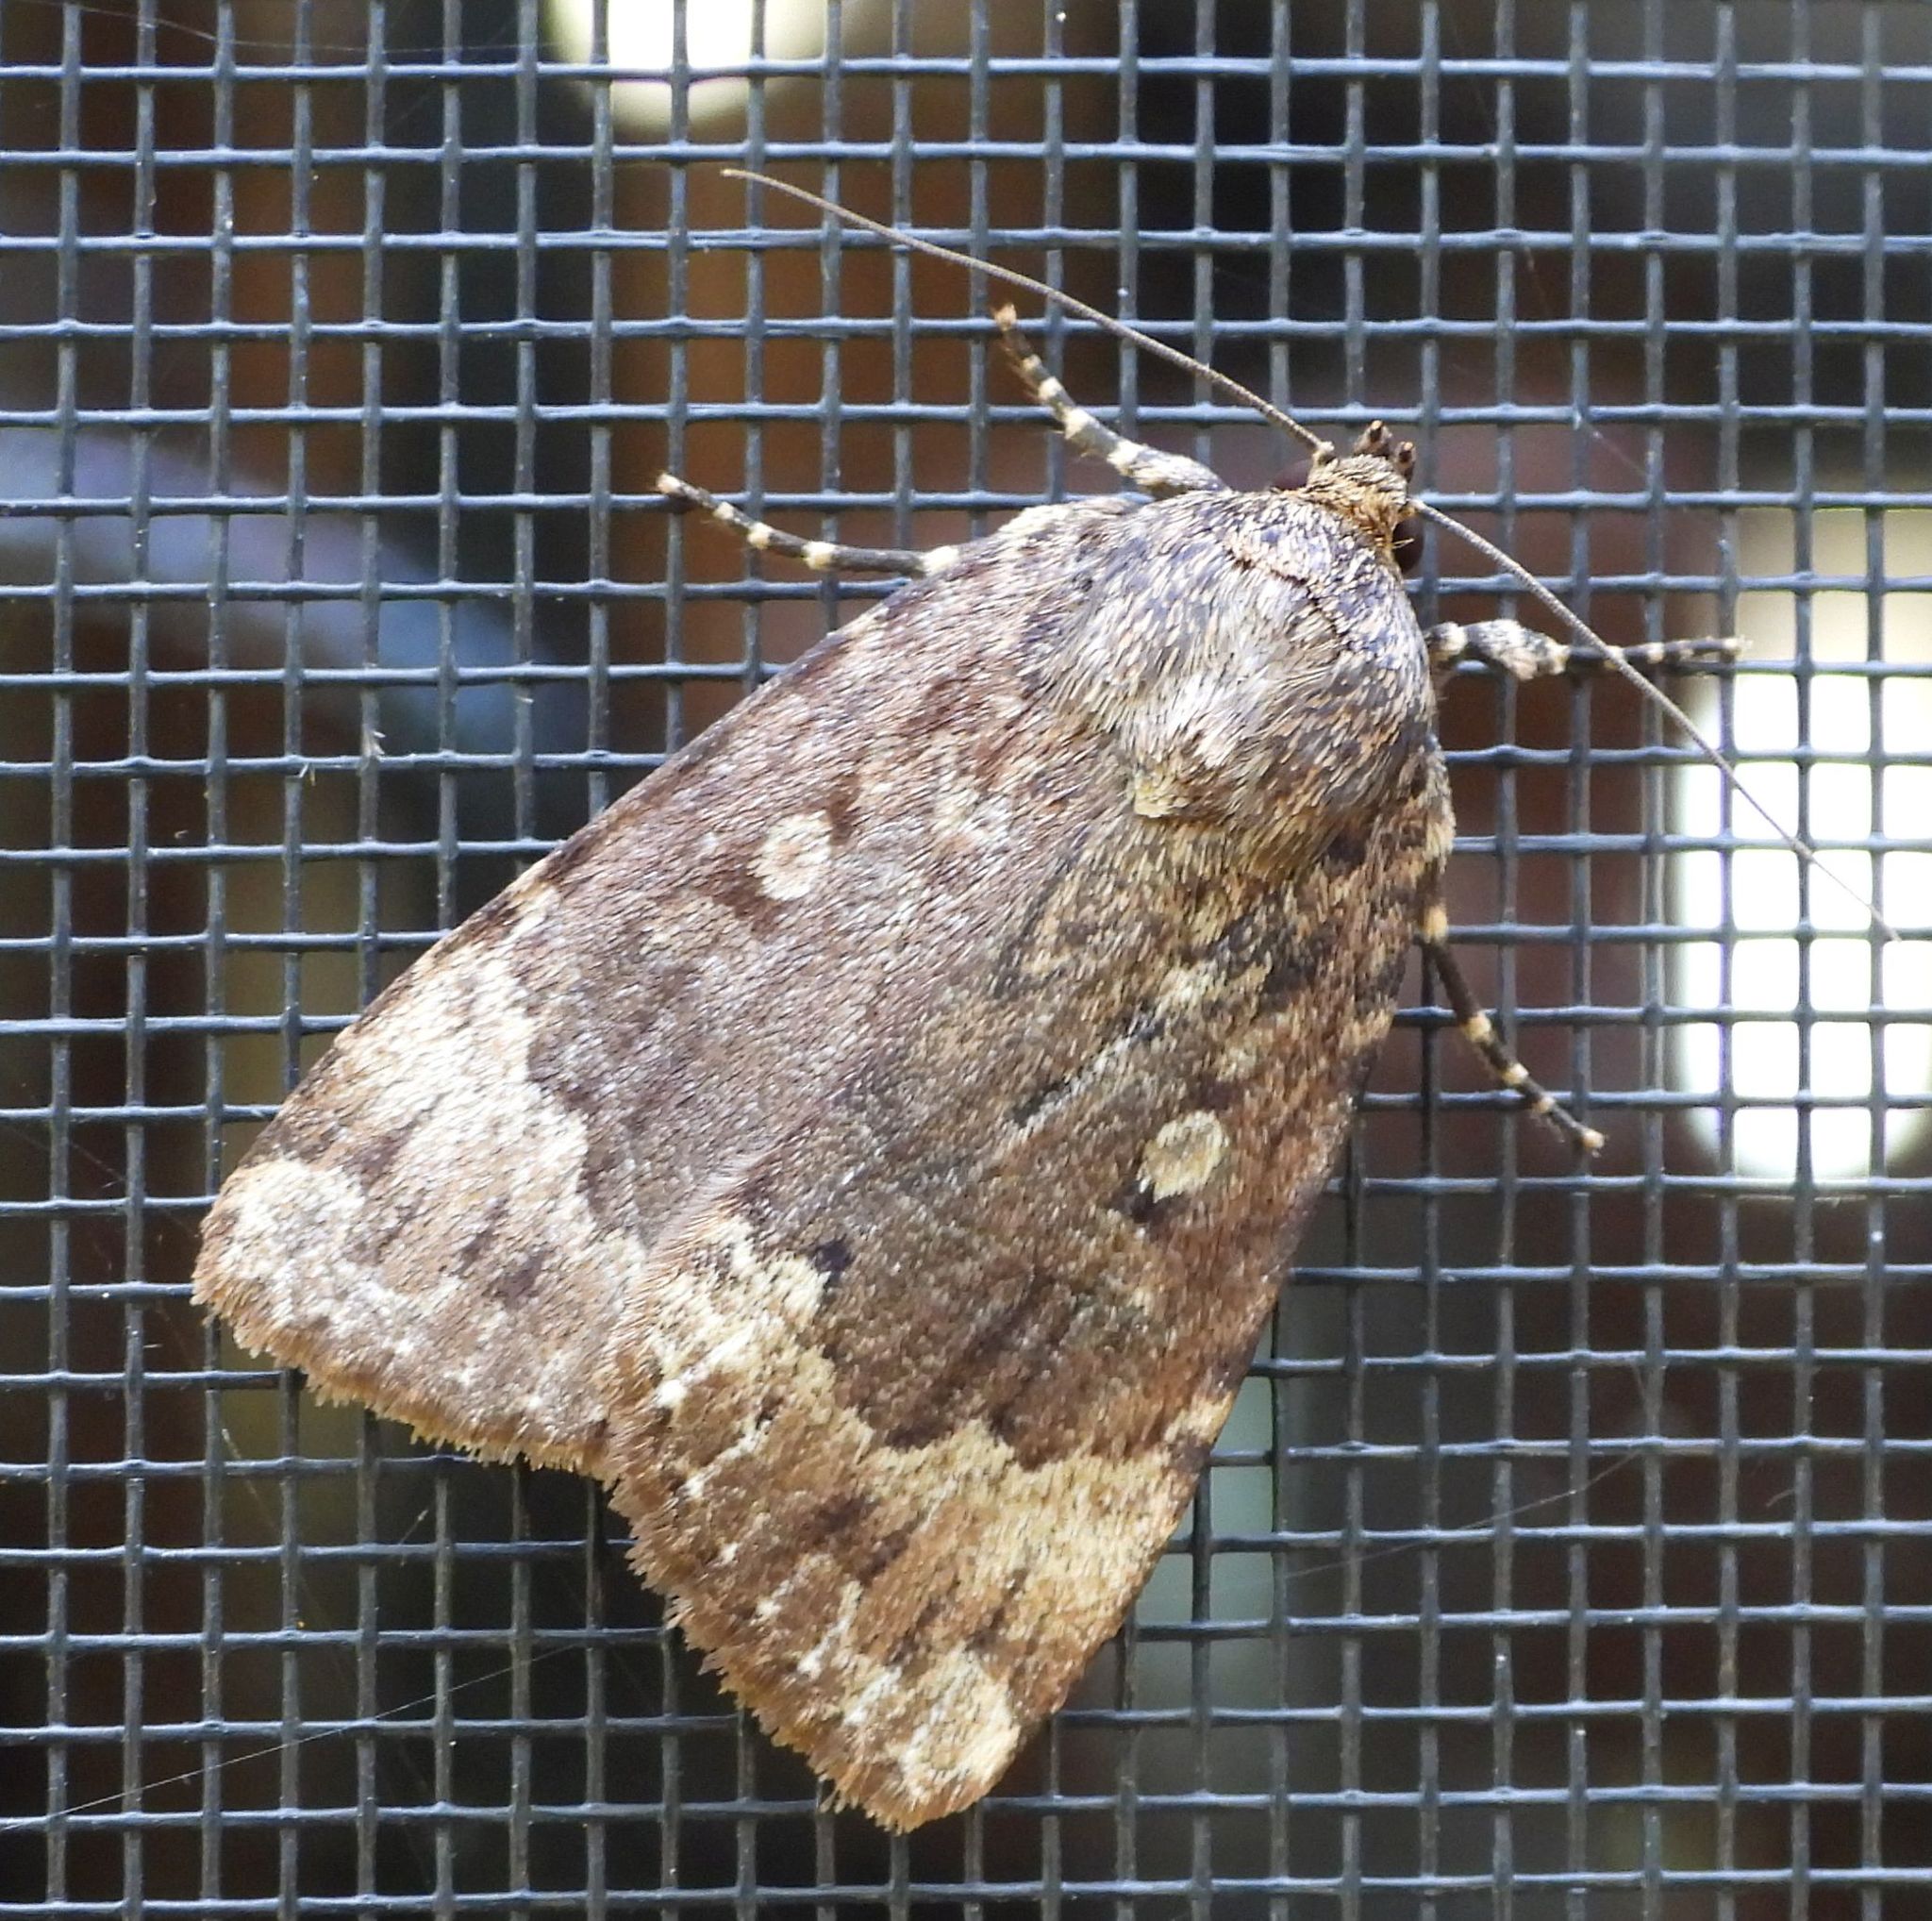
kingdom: Animalia
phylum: Arthropoda
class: Insecta
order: Lepidoptera
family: Noctuidae
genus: Amphipyra
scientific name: Amphipyra pyramidoides
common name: American copper underwing
